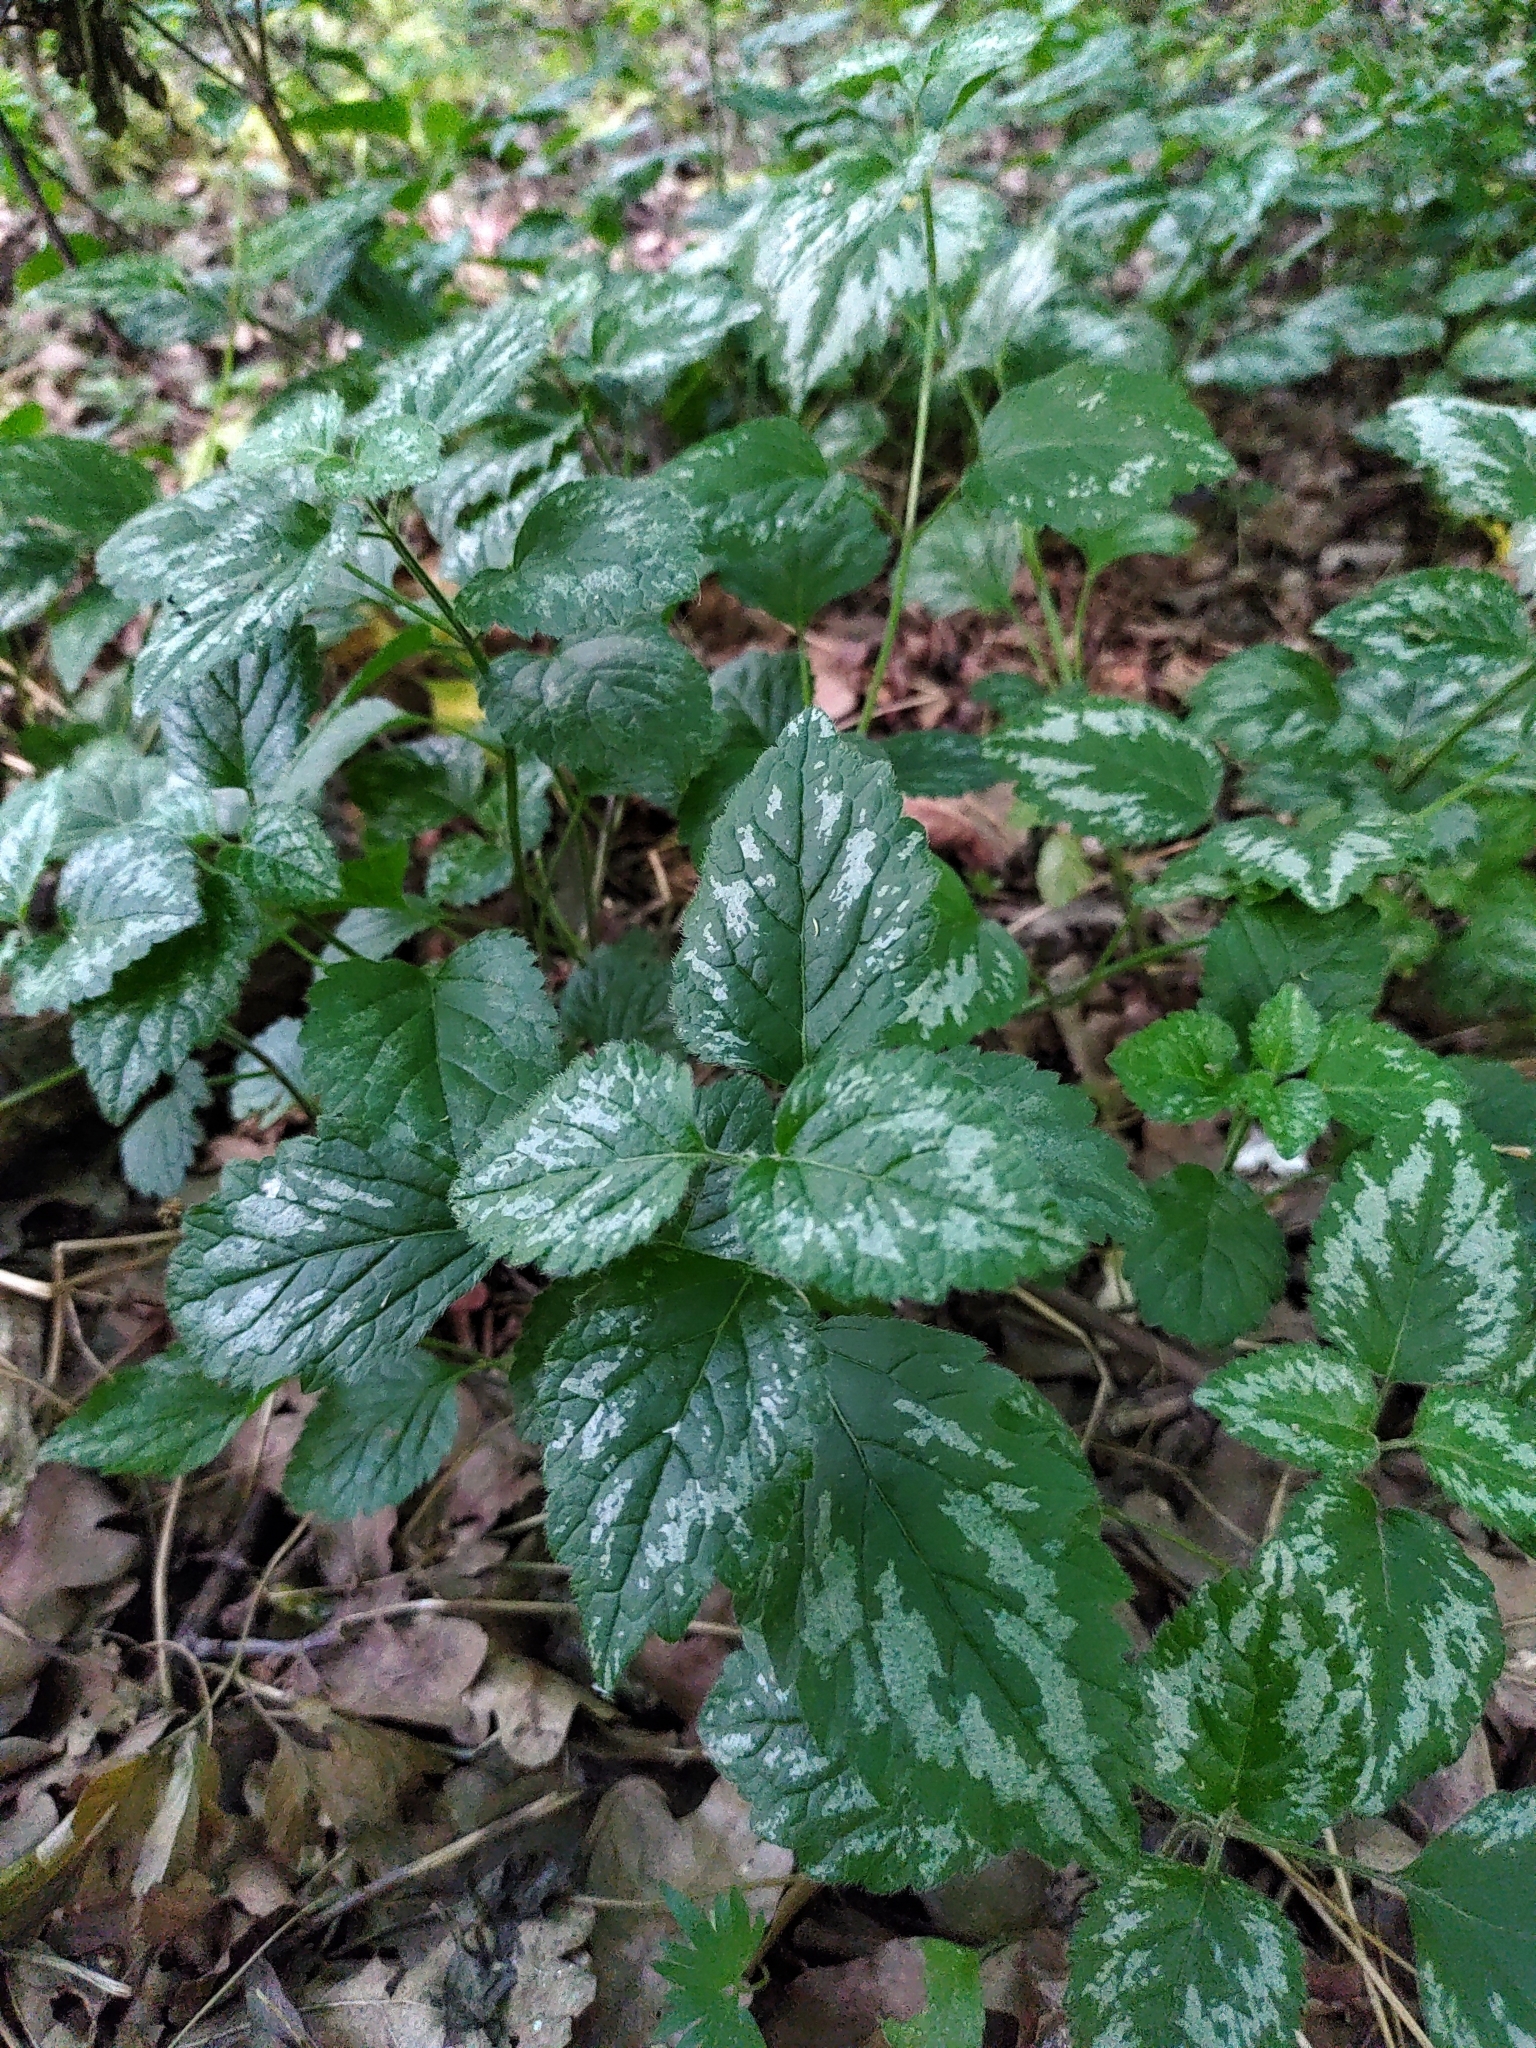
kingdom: Plantae
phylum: Tracheophyta
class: Magnoliopsida
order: Lamiales
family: Lamiaceae
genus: Lamium
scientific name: Lamium galeobdolon
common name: Yellow archangel
